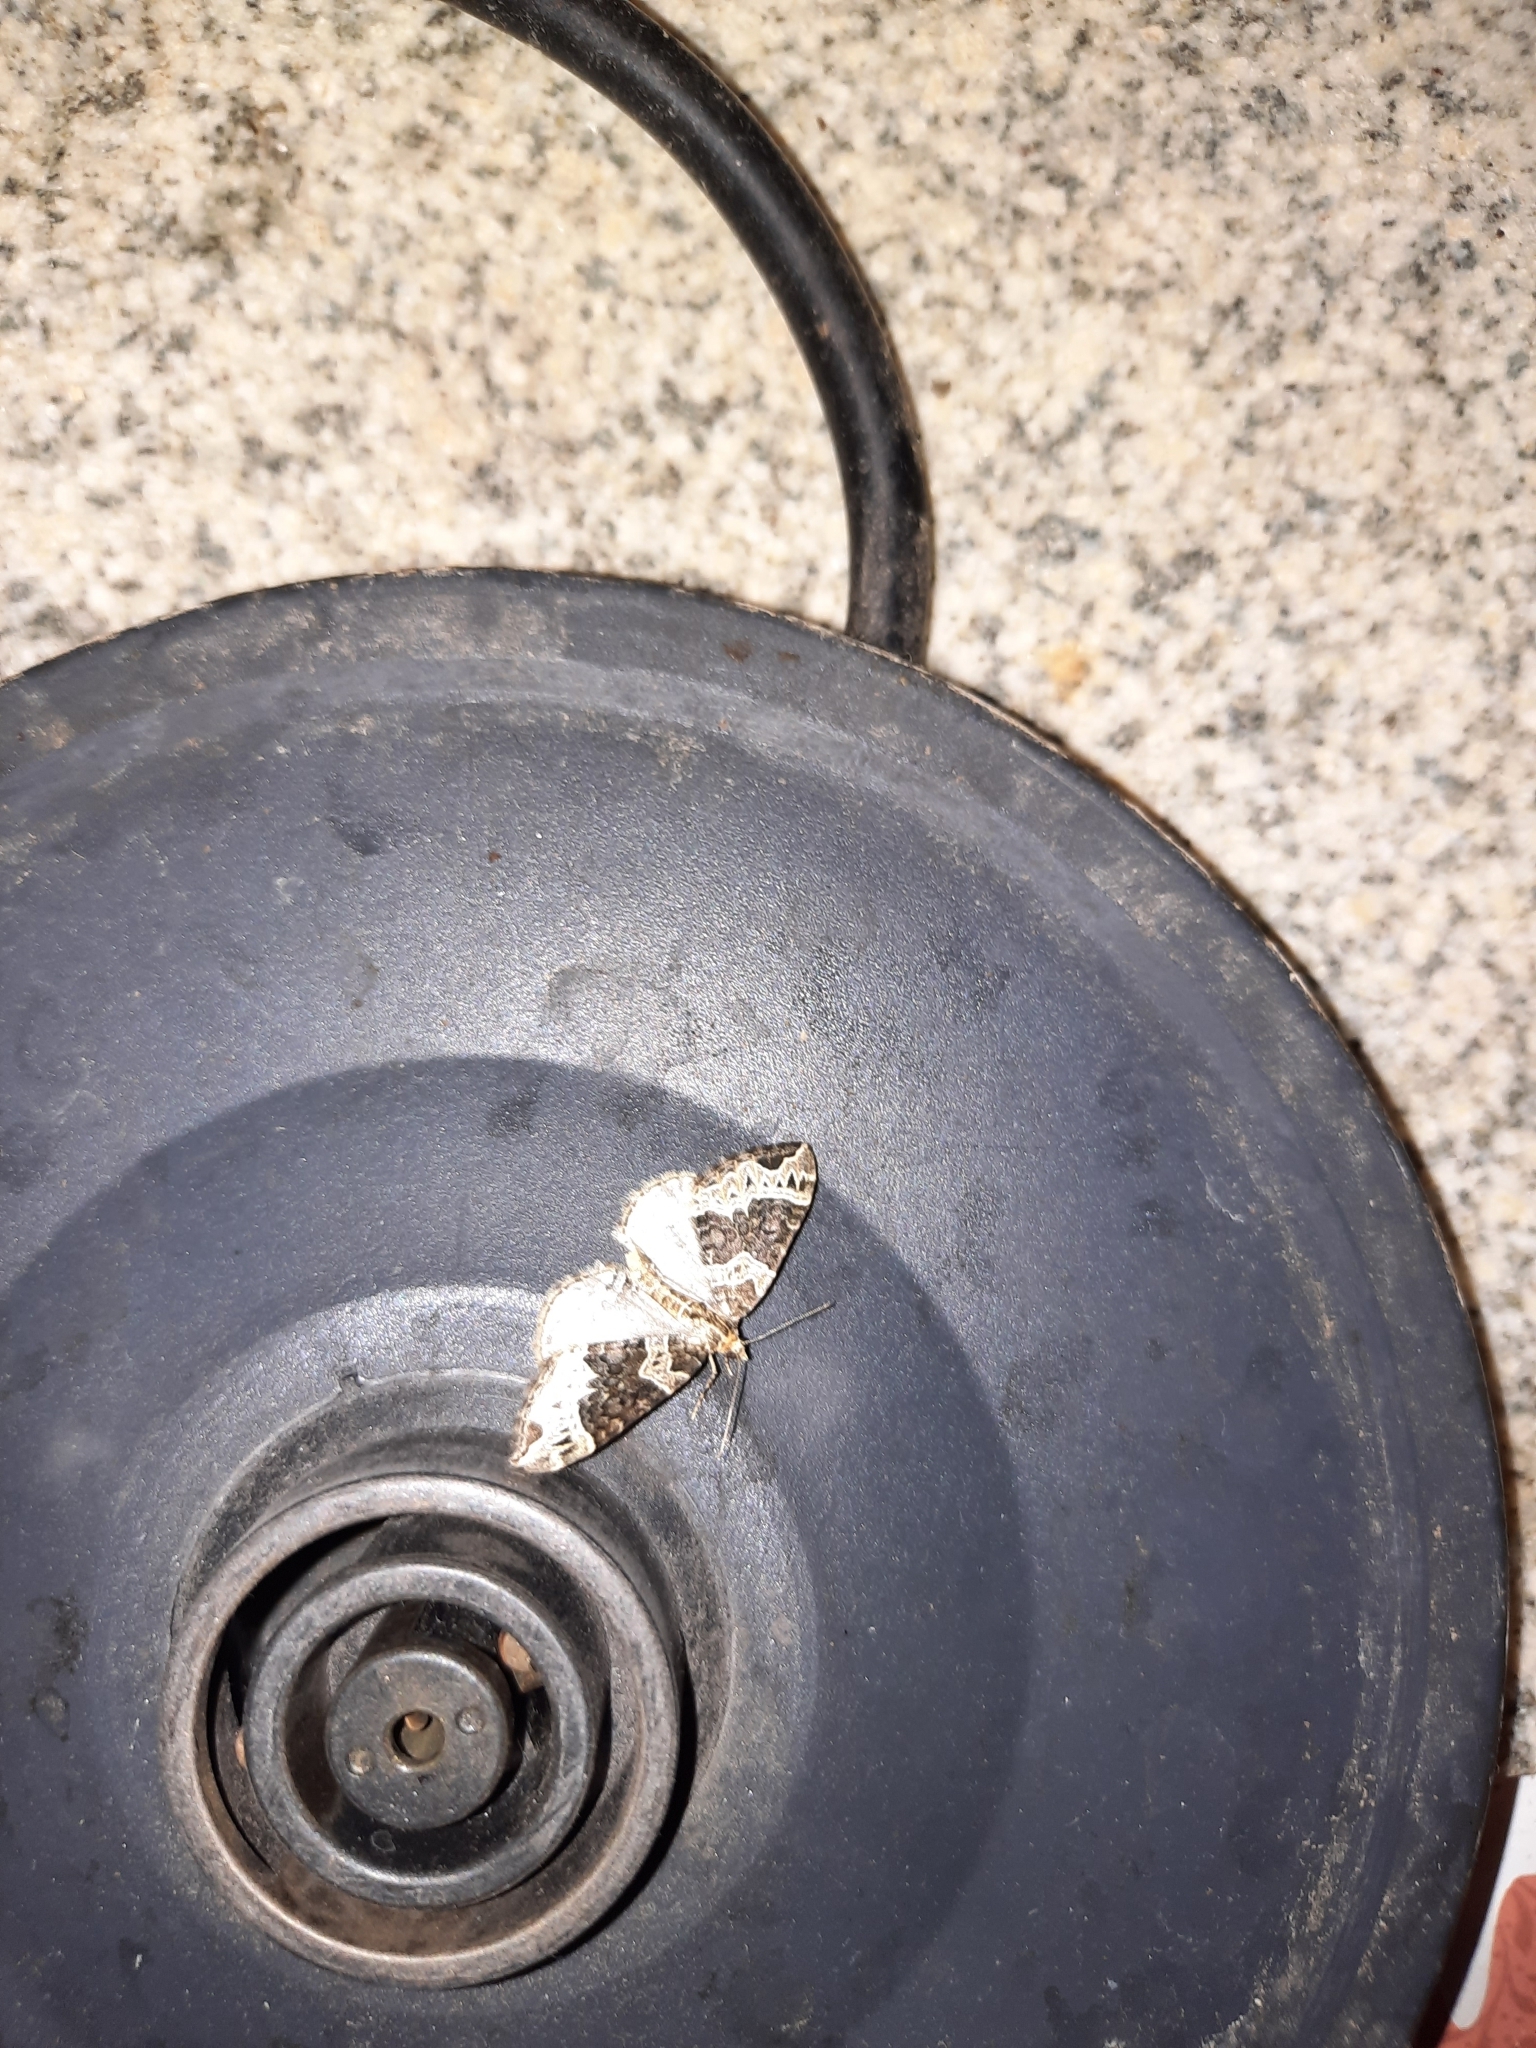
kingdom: Animalia
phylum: Arthropoda
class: Insecta
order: Lepidoptera
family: Geometridae
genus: Ecliptopera
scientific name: Ecliptopera silaceata
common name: Small phoenix
